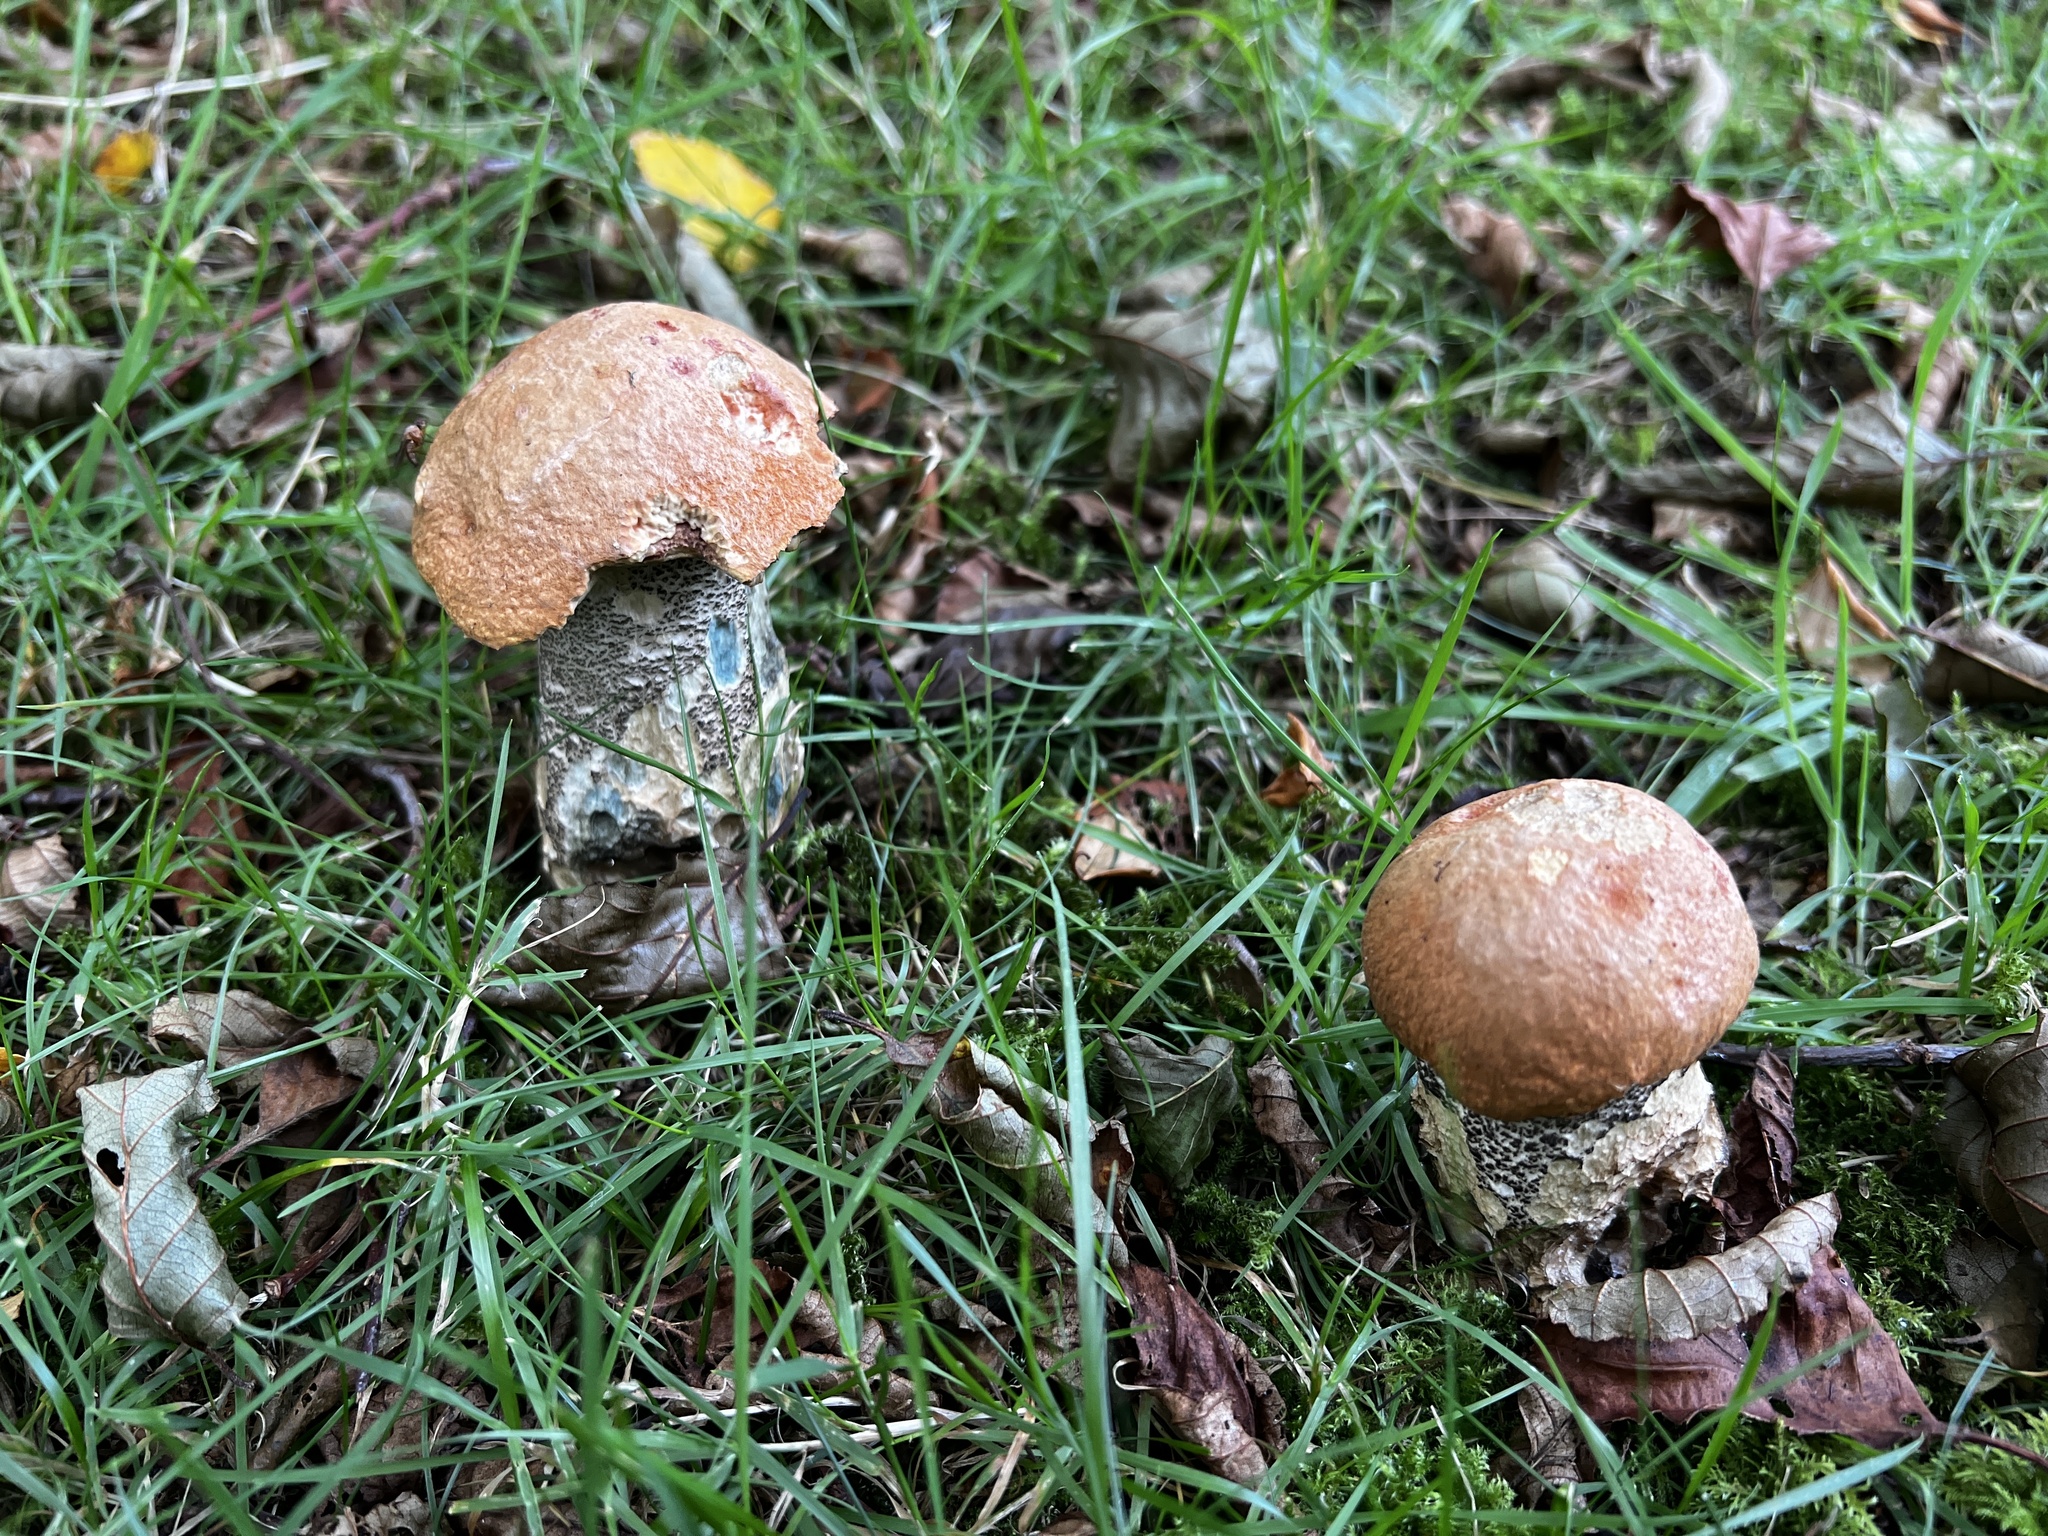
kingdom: Fungi
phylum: Basidiomycota
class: Agaricomycetes
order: Boletales
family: Boletaceae
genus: Leccinum
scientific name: Leccinum versipelle
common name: Orange birch bolete
